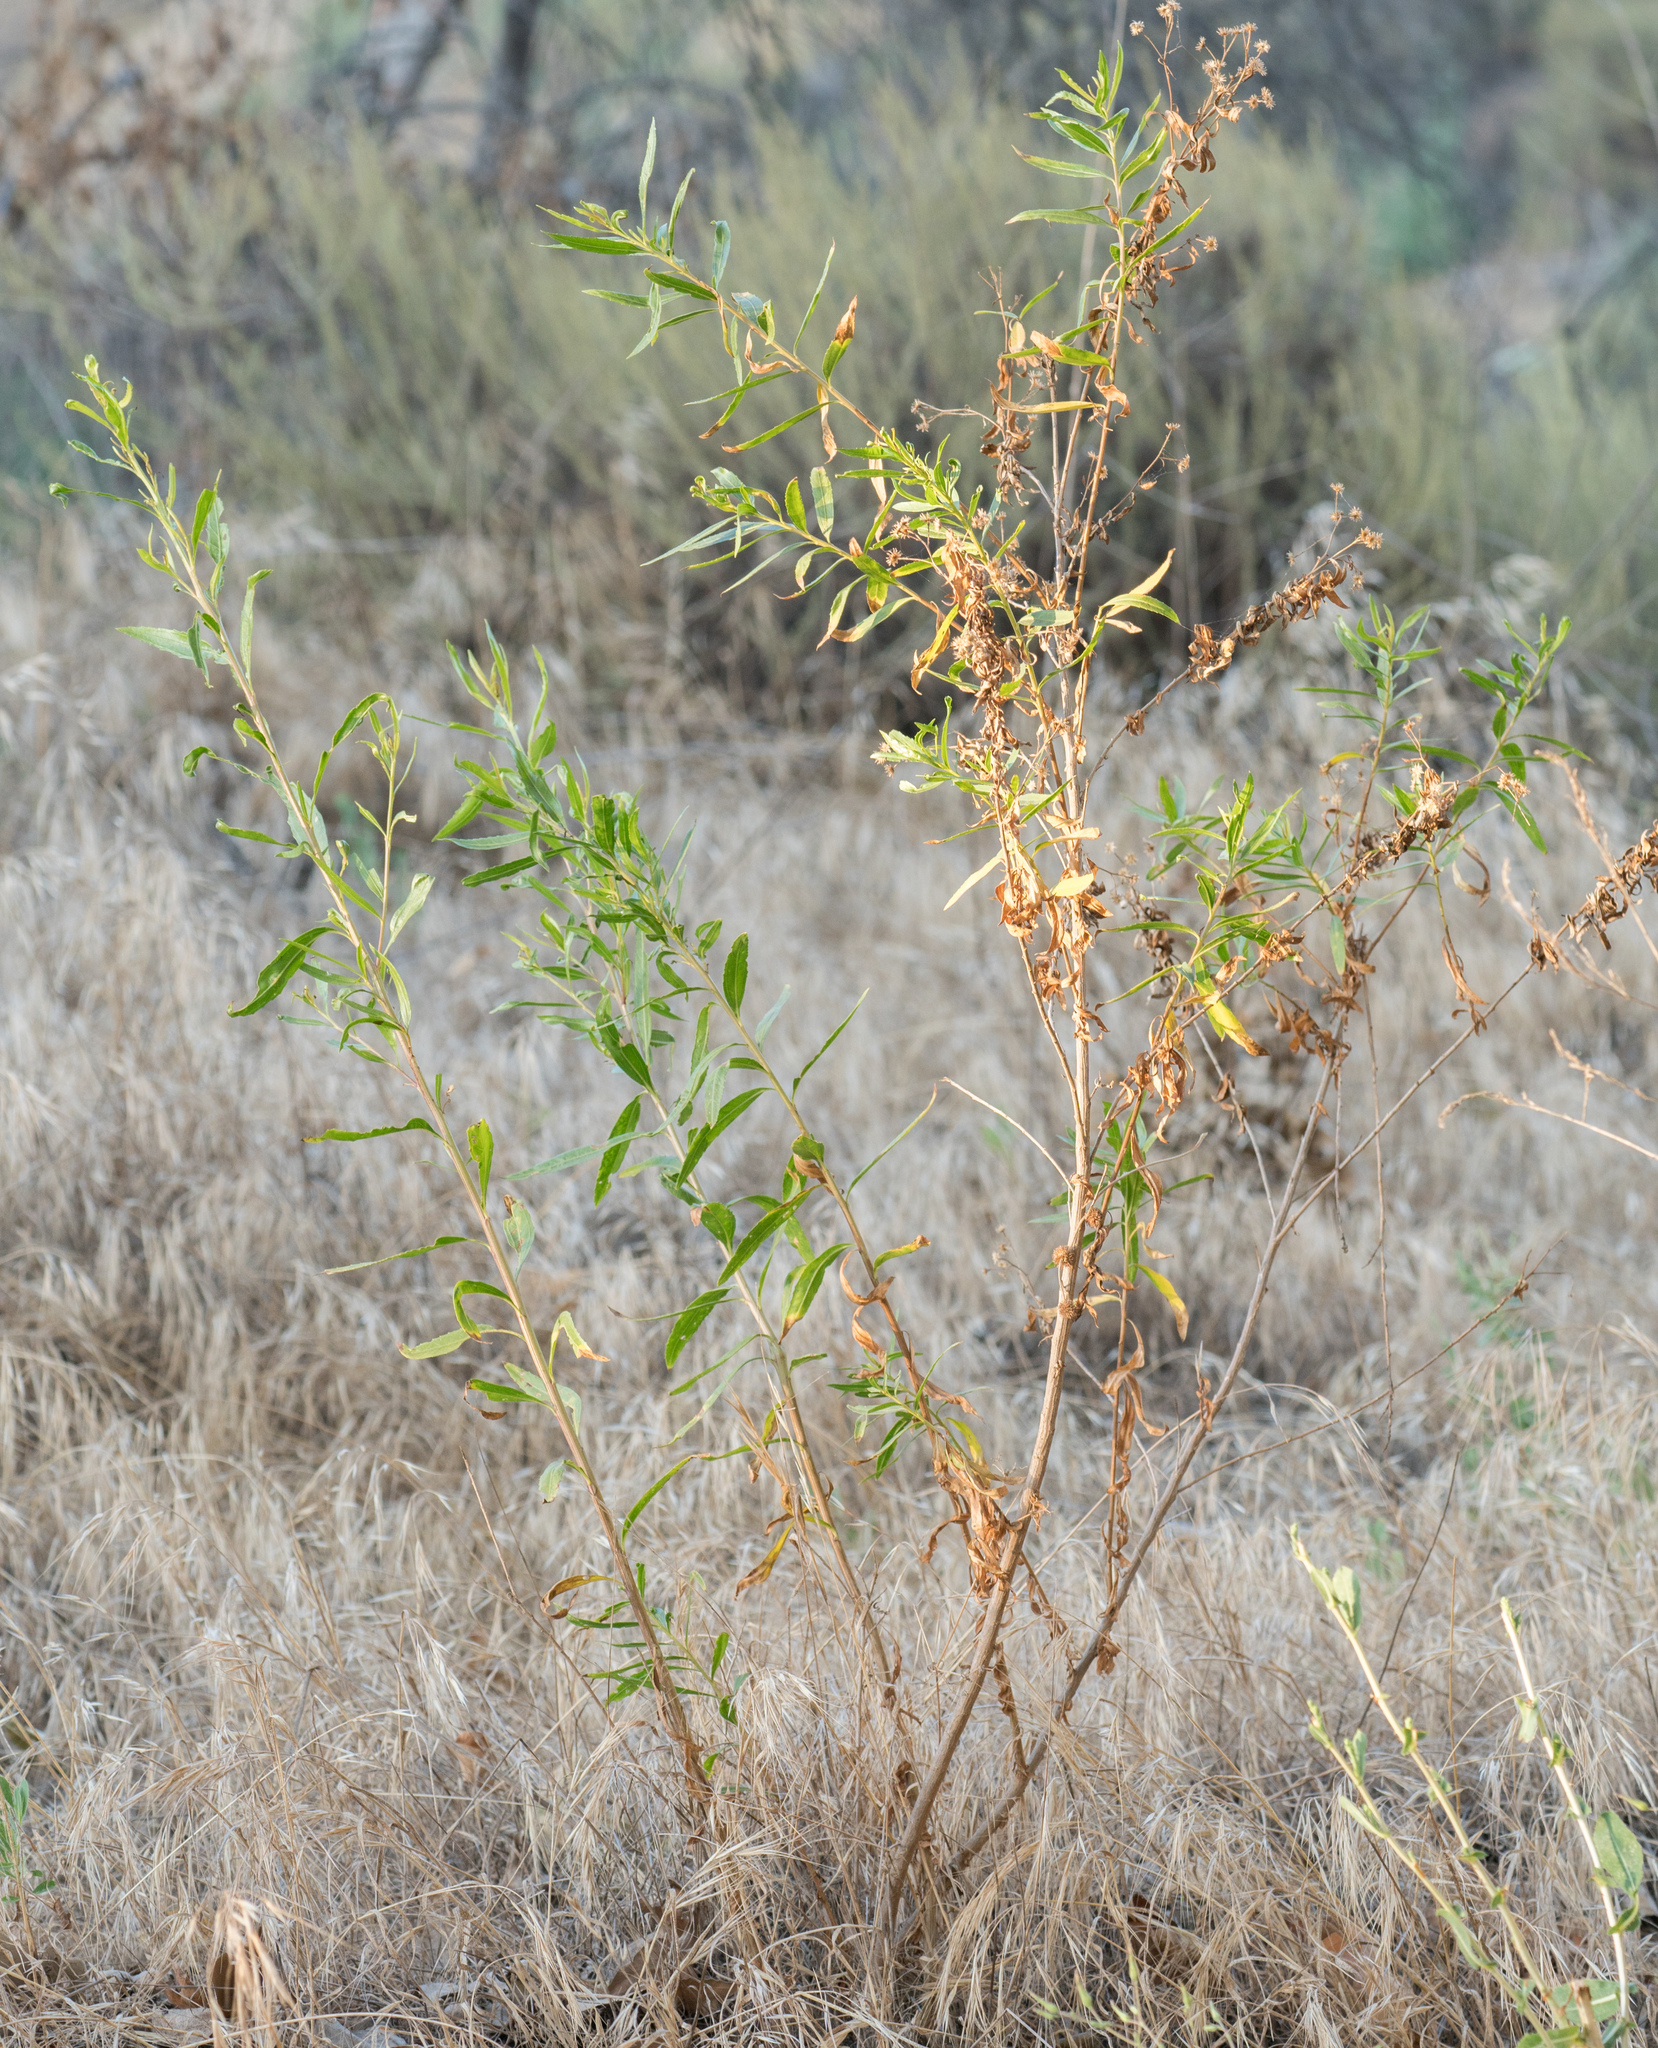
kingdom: Plantae
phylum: Tracheophyta
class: Magnoliopsida
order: Asterales
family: Asteraceae
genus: Baccharis
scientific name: Baccharis salicifolia
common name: Sticky baccharis
